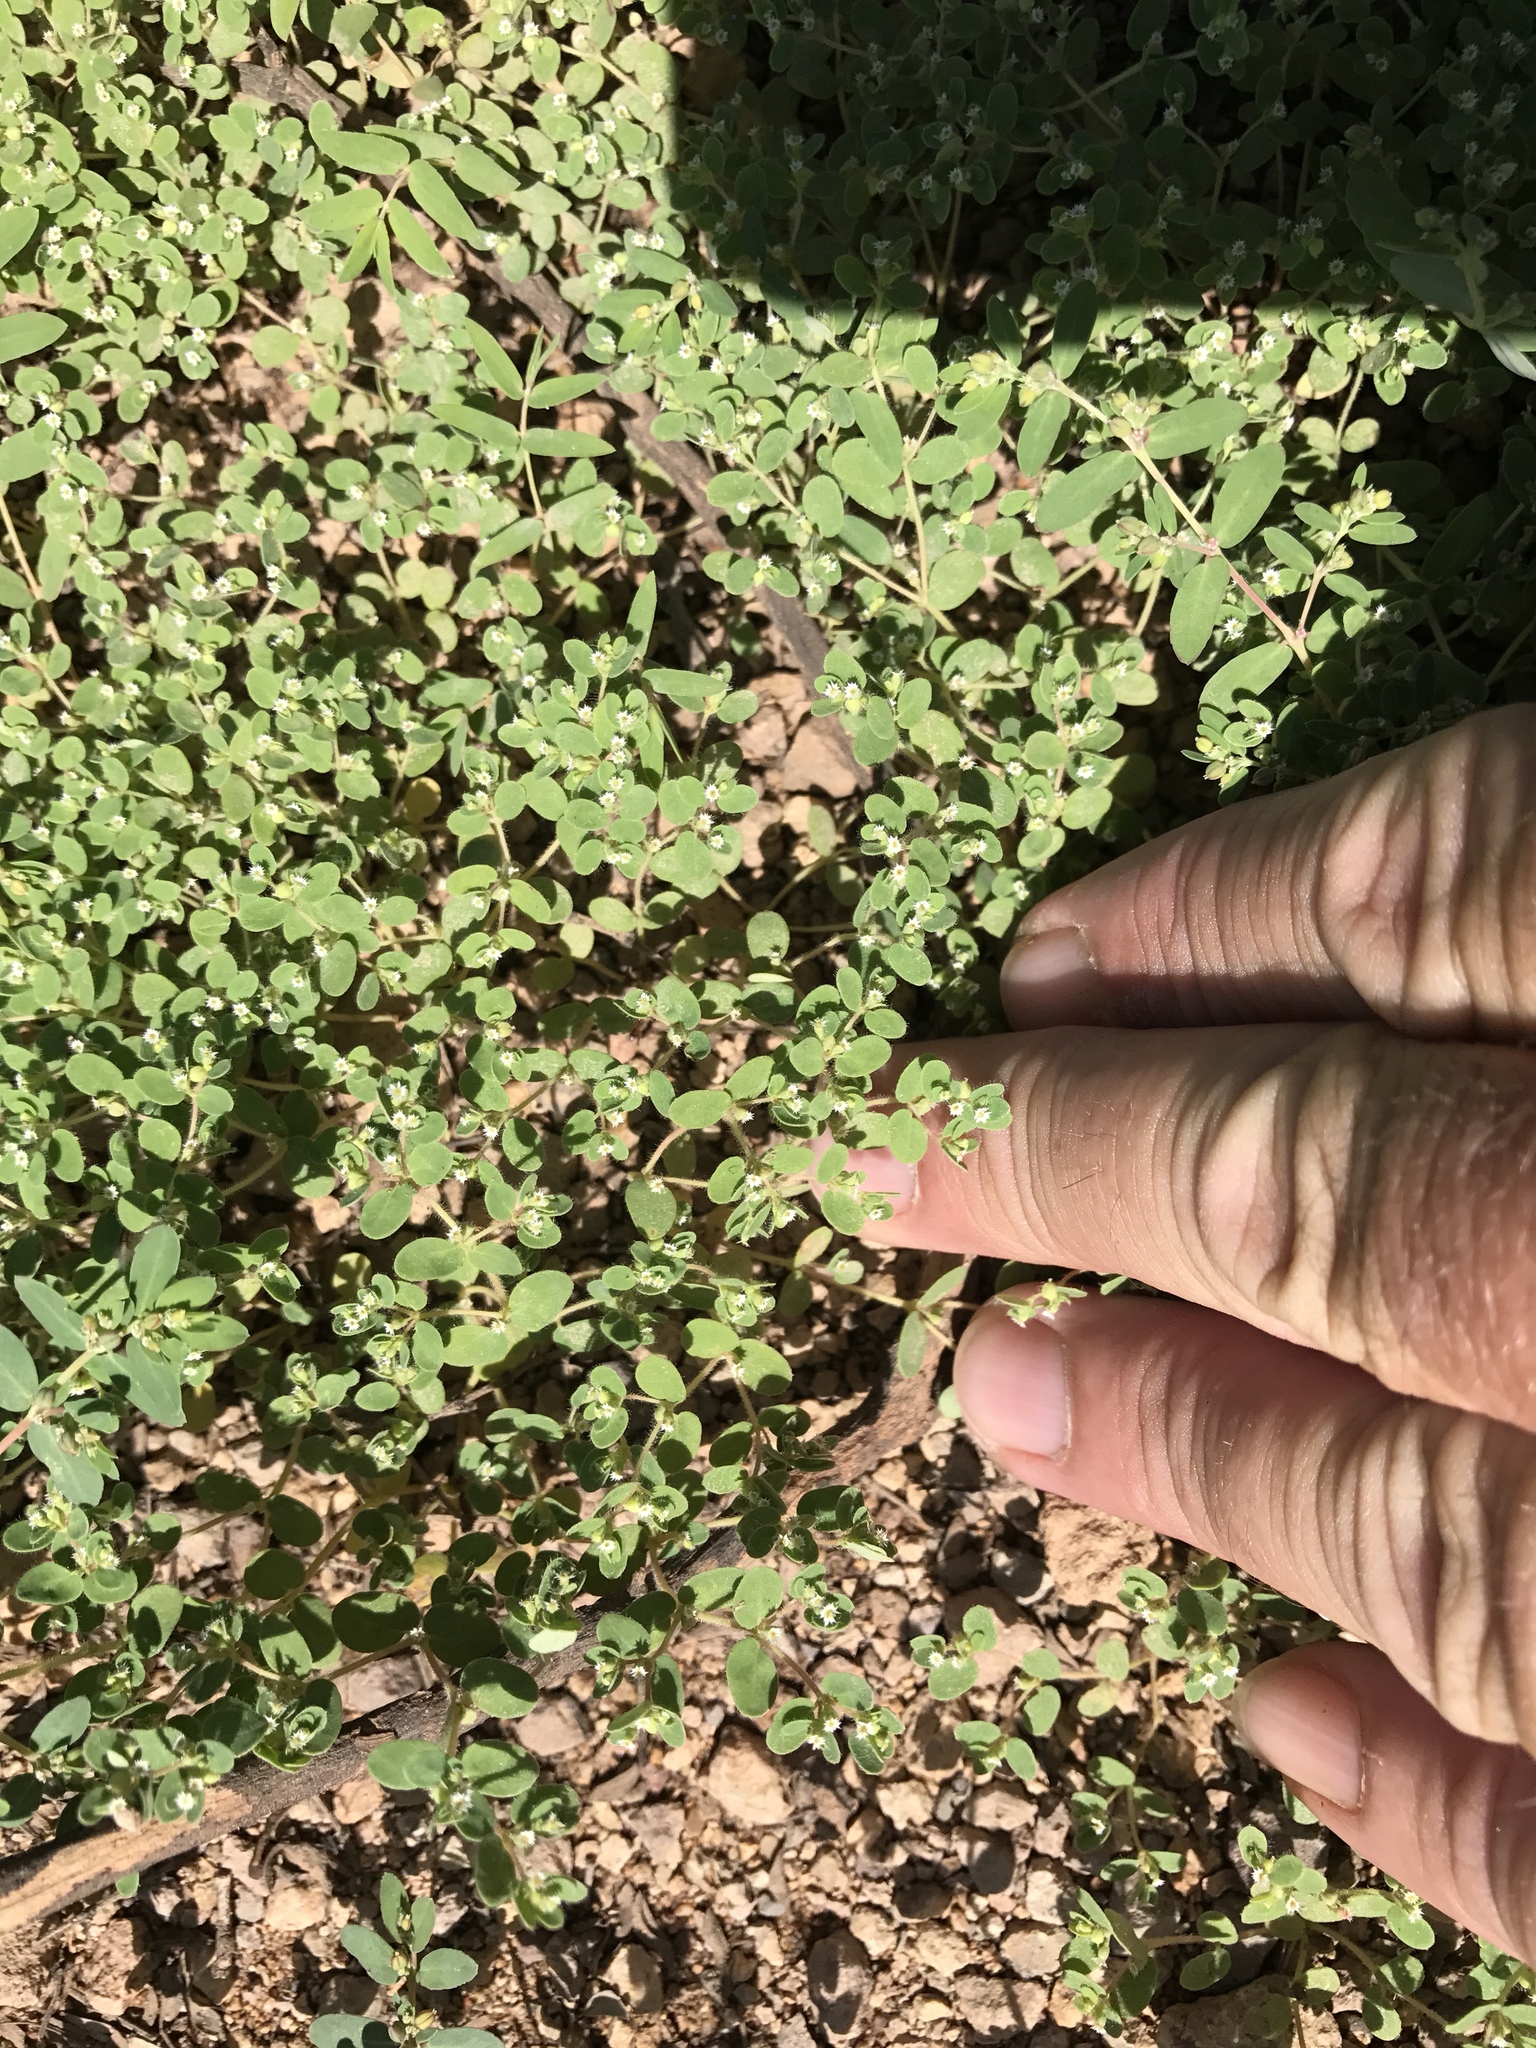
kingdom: Plantae
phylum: Tracheophyta
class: Magnoliopsida
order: Malpighiales
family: Euphorbiaceae
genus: Euphorbia
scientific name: Euphorbia setiloba
